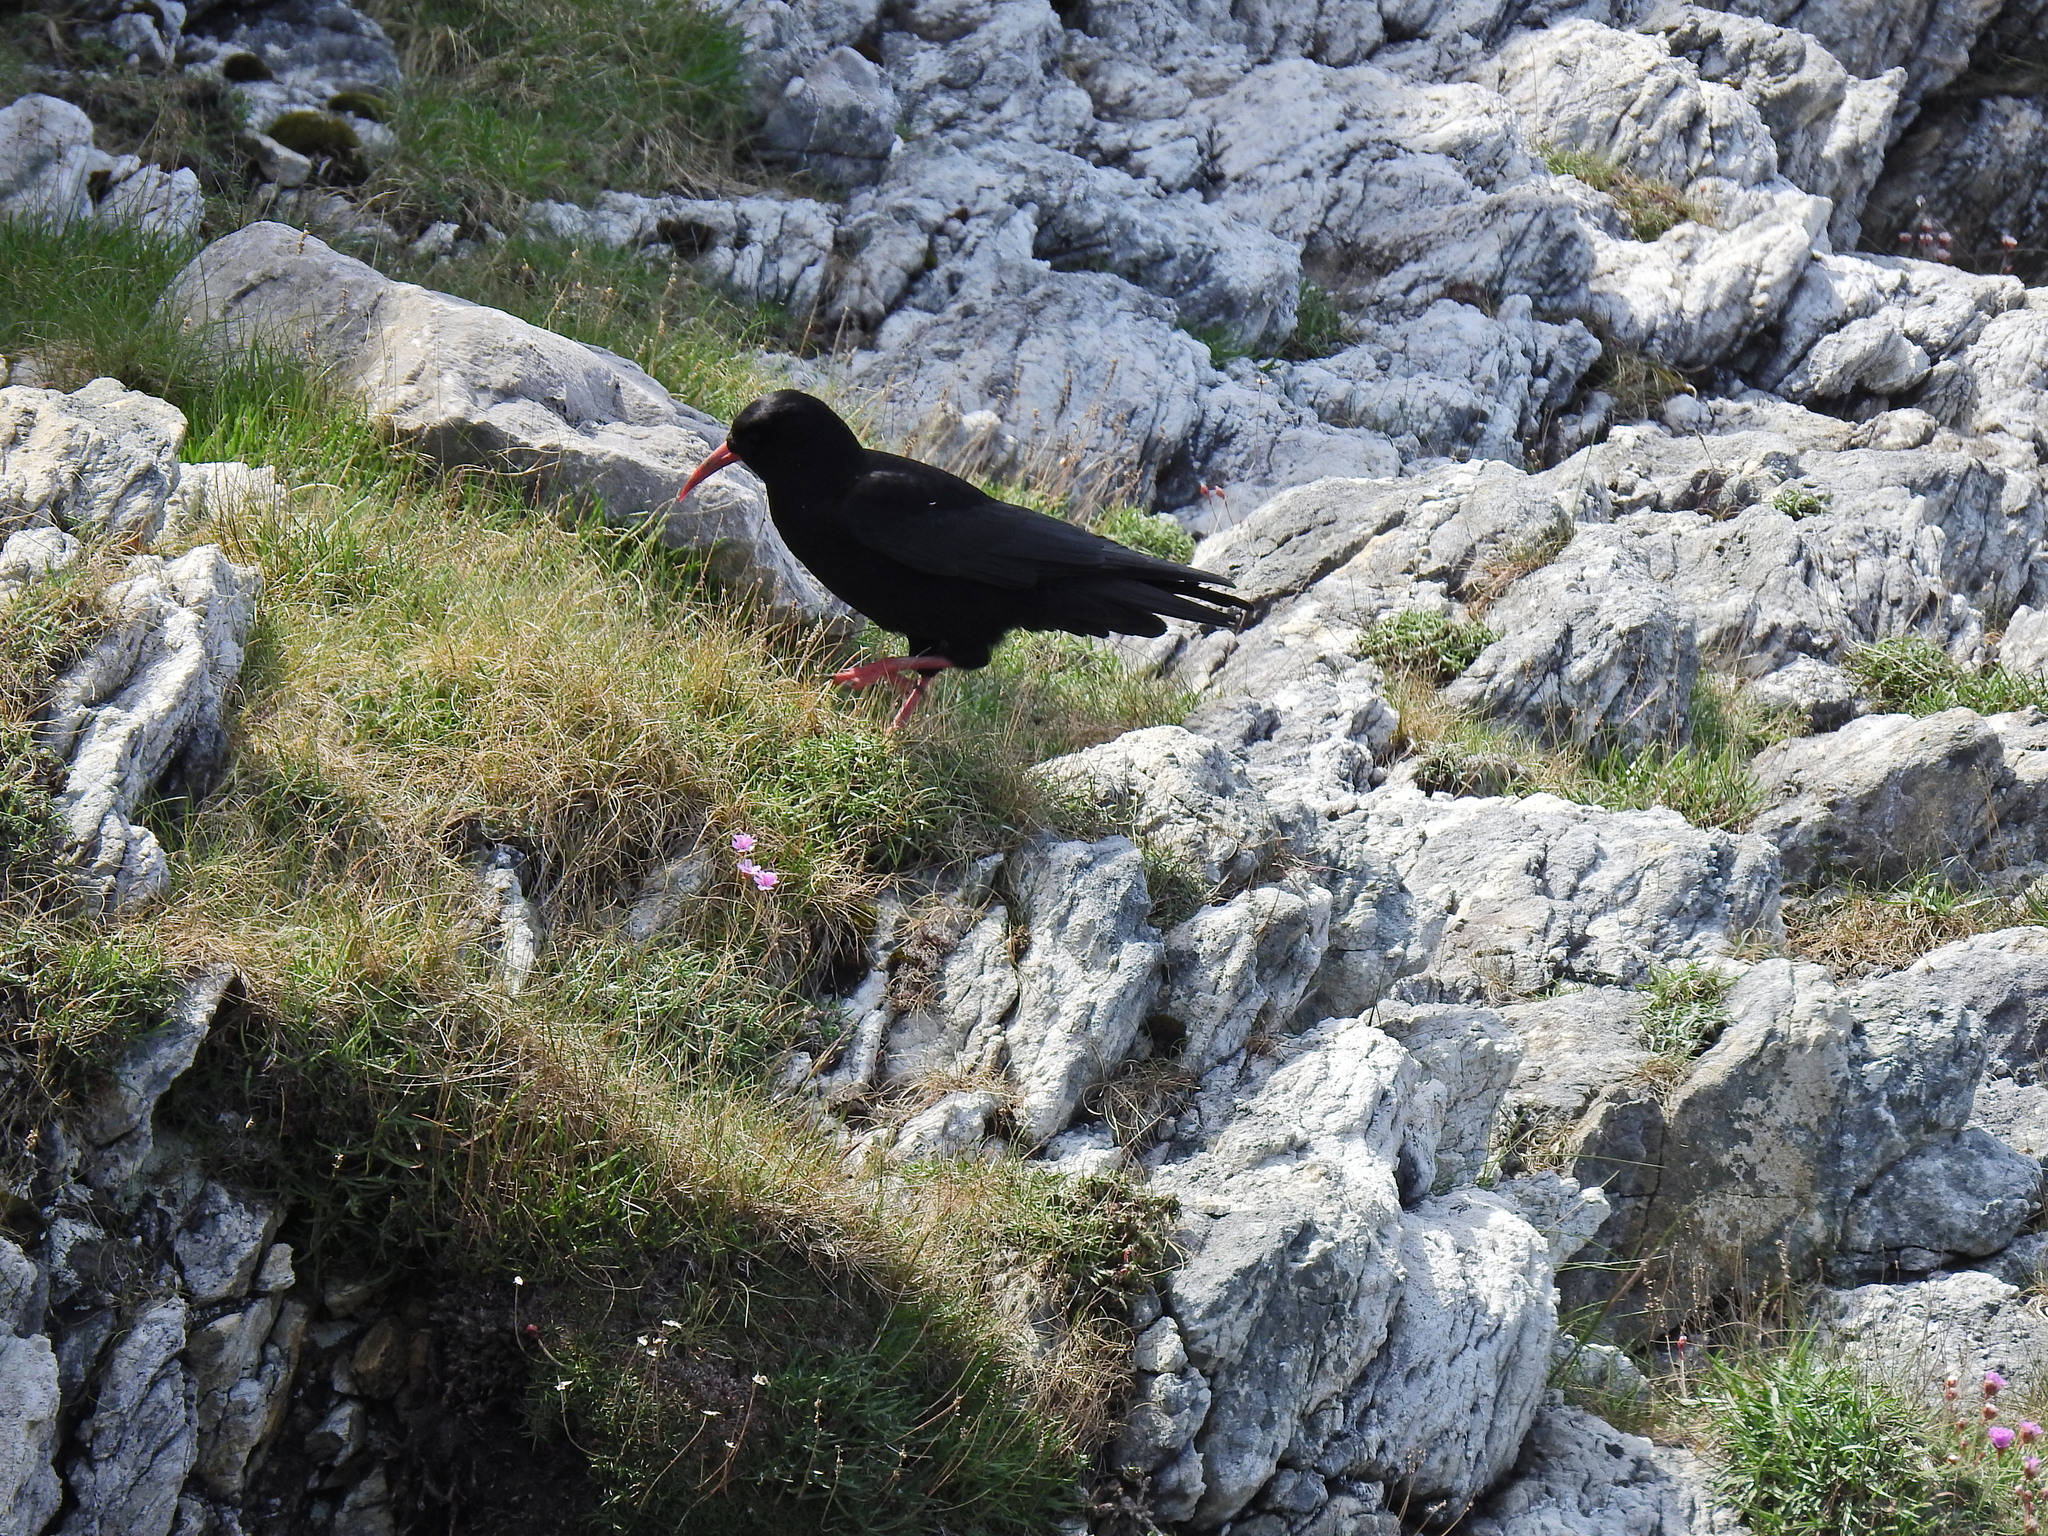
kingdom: Animalia
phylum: Chordata
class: Aves
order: Passeriformes
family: Corvidae
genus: Pyrrhocorax
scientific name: Pyrrhocorax pyrrhocorax
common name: Red-billed chough
